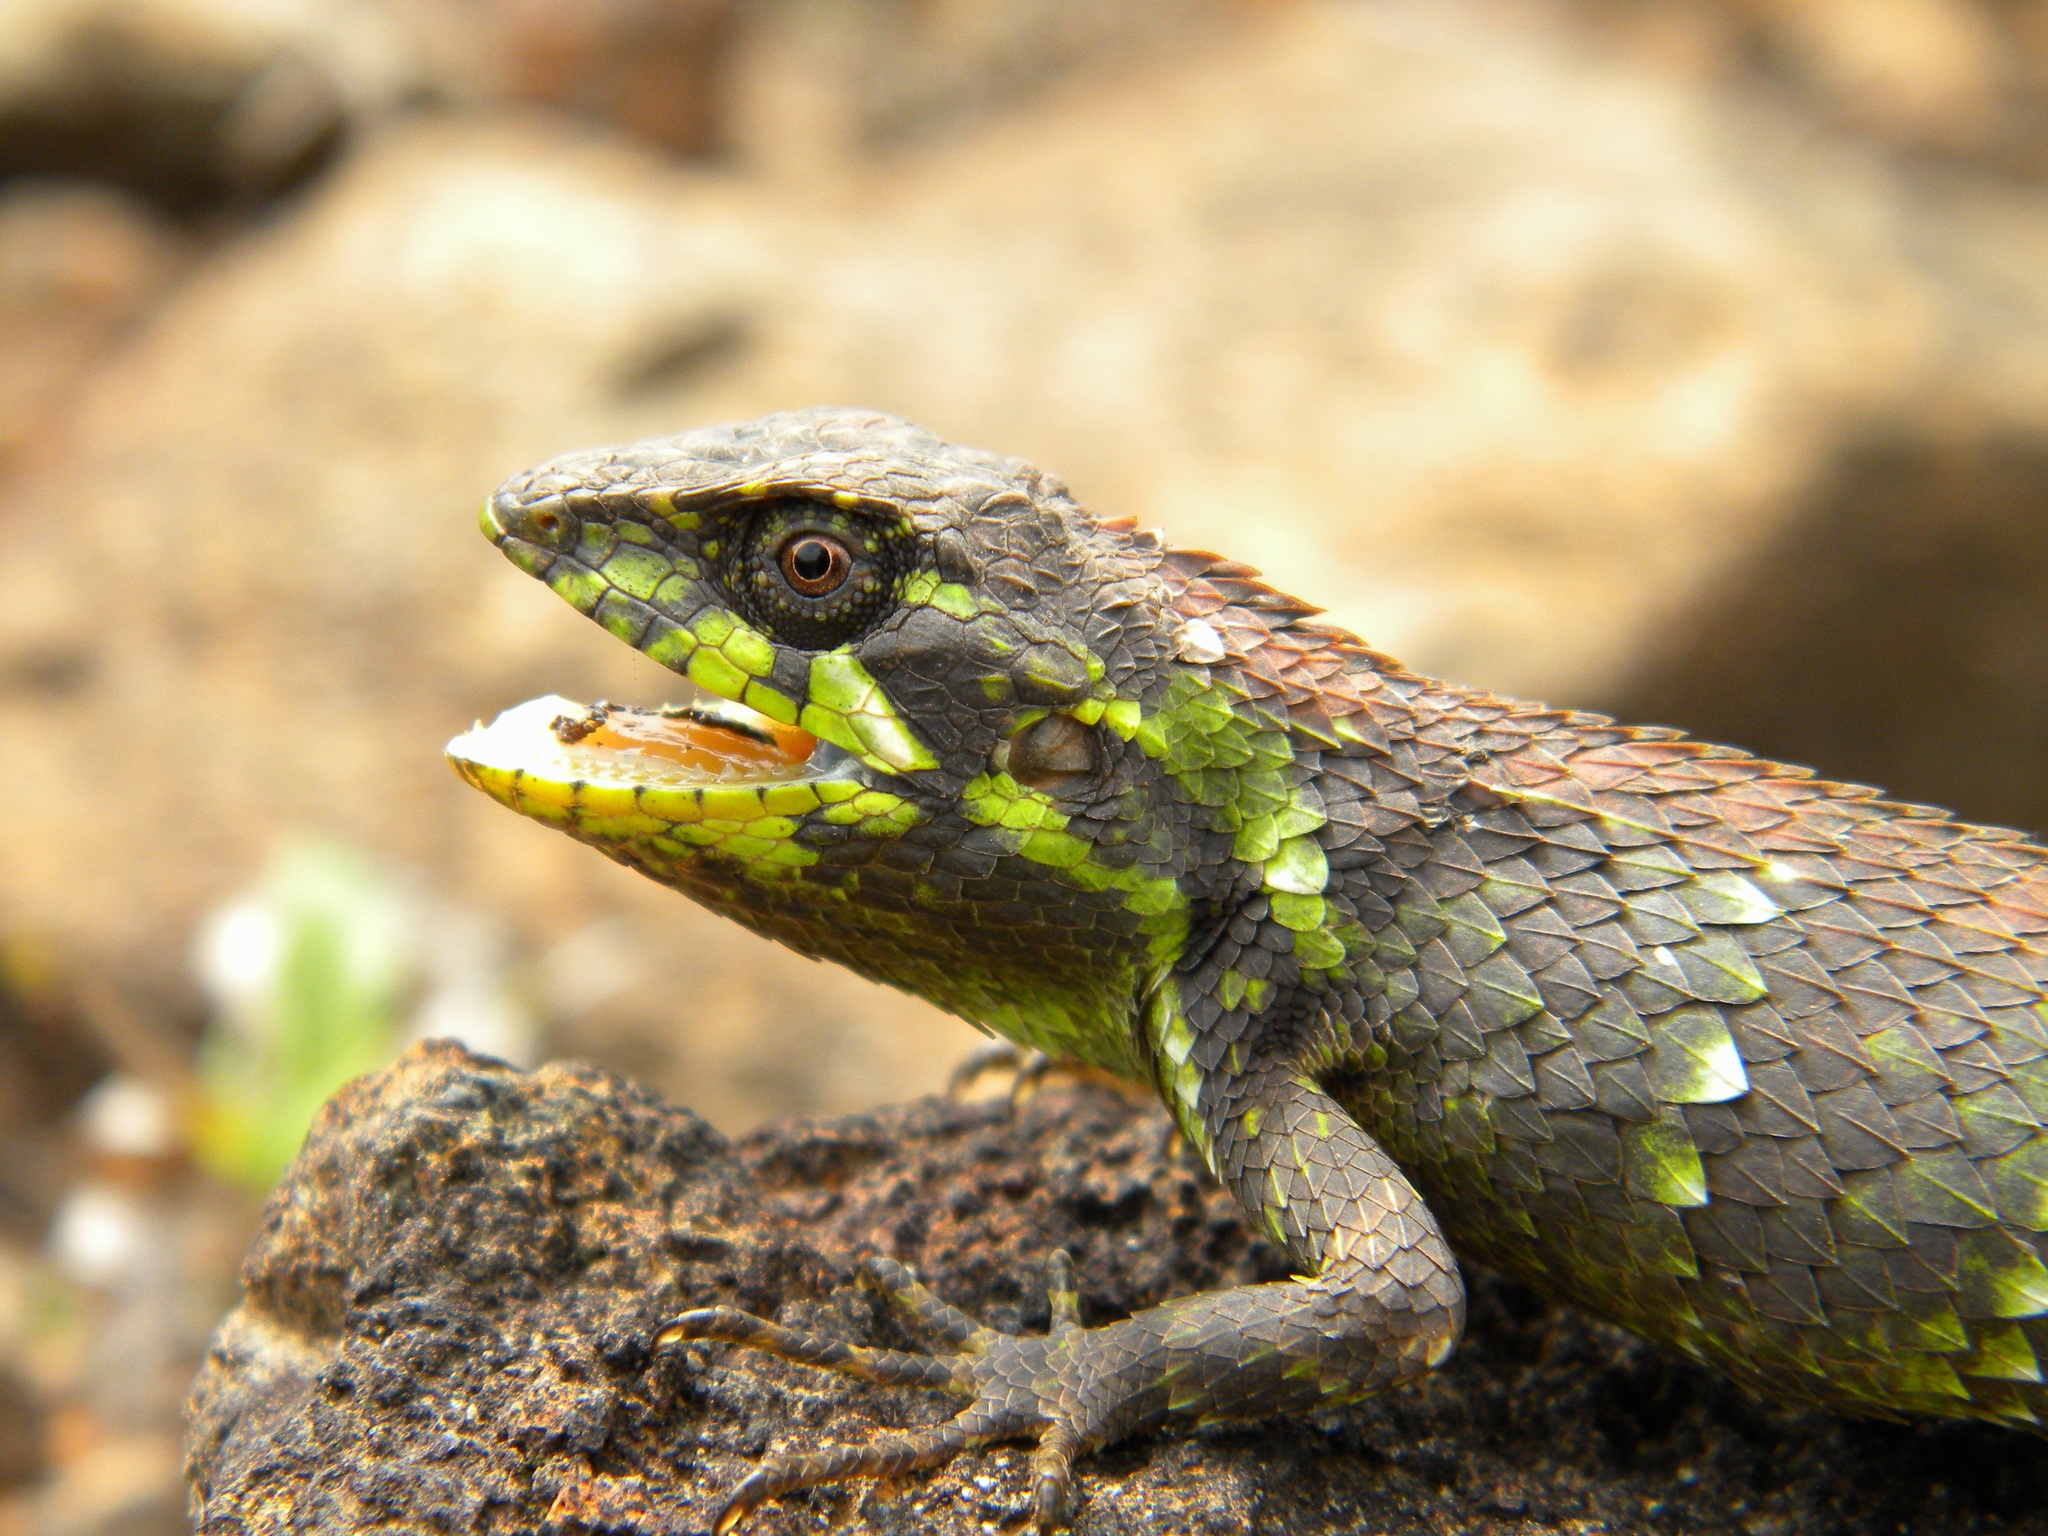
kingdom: Animalia
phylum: Chordata
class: Squamata
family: Agamidae
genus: Salea
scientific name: Salea horsfieldii
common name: Horsfield's spiny lizard
